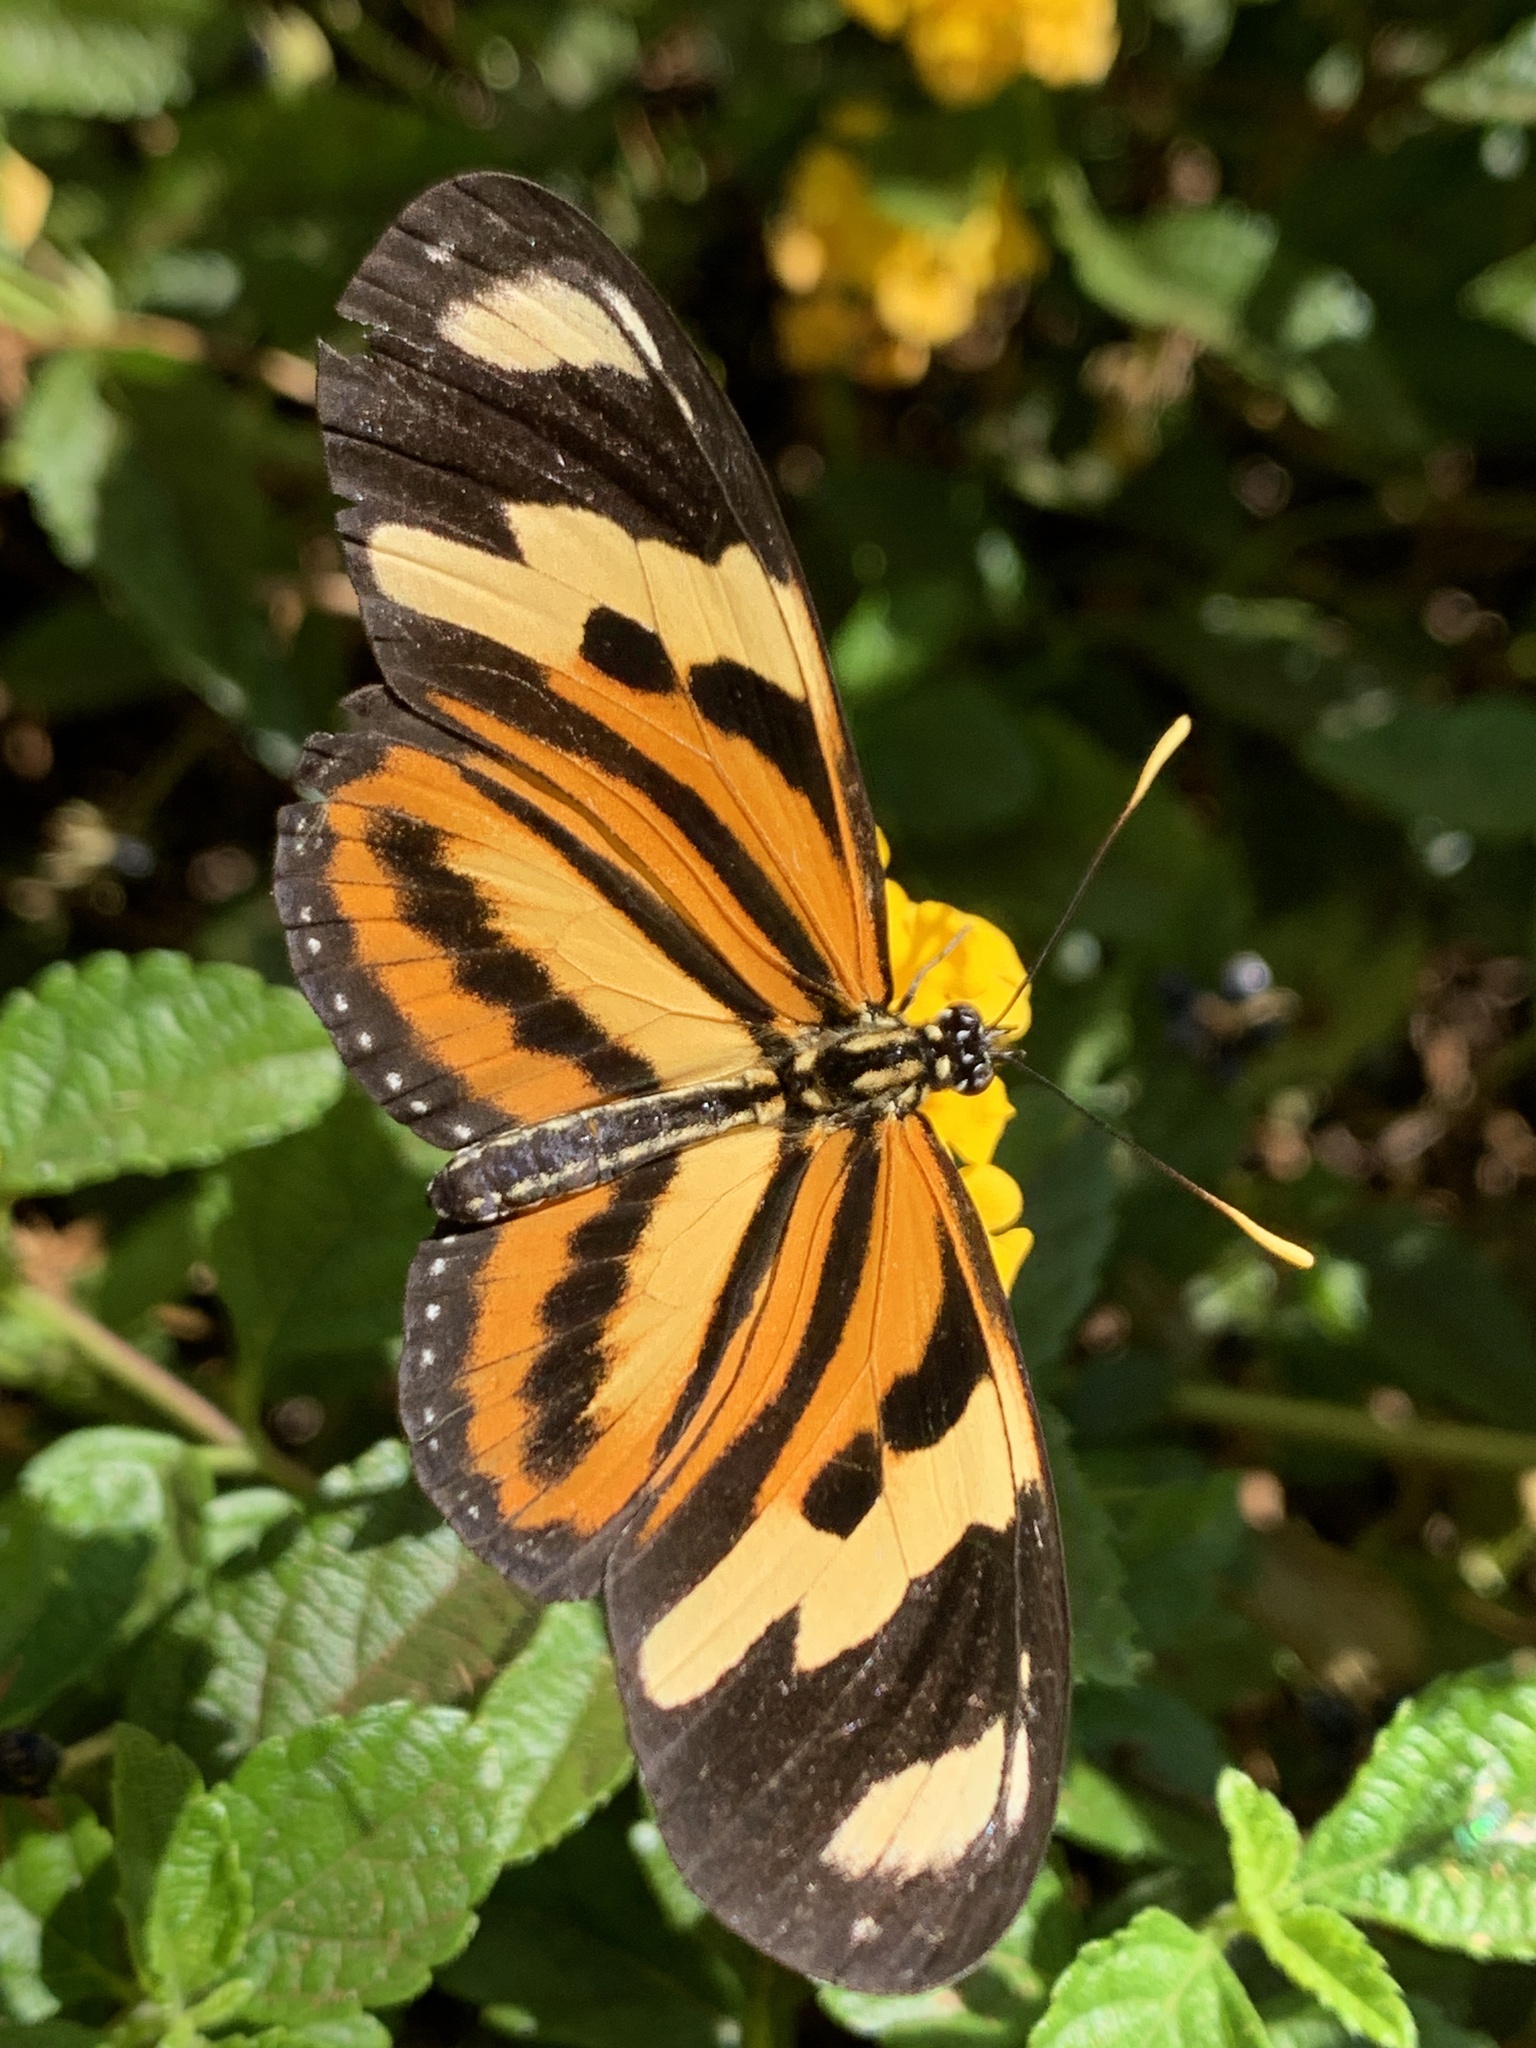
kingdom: Animalia
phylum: Arthropoda
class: Insecta
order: Lepidoptera
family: Nymphalidae
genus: Heliconius
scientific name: Heliconius ethilla
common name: Ethilia longwing
